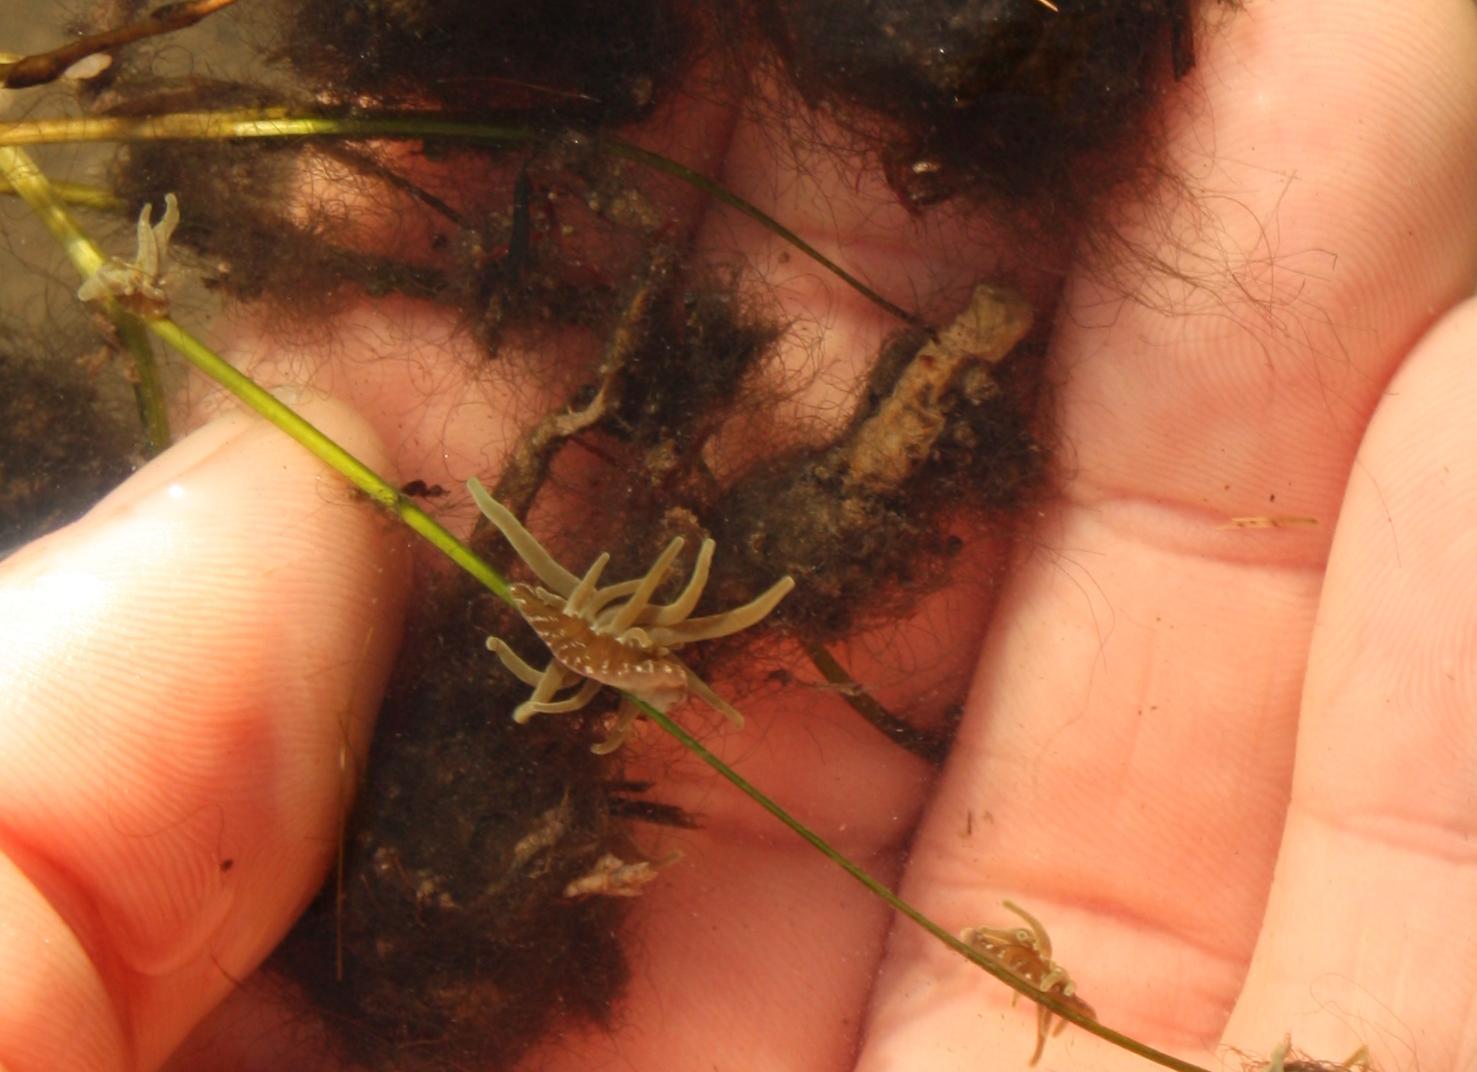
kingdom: Animalia
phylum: Cnidaria
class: Anthozoa
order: Actiniaria
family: Actiniidae
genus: Paranemonia
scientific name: Paranemonia cinerea
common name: Grass crack anemone
